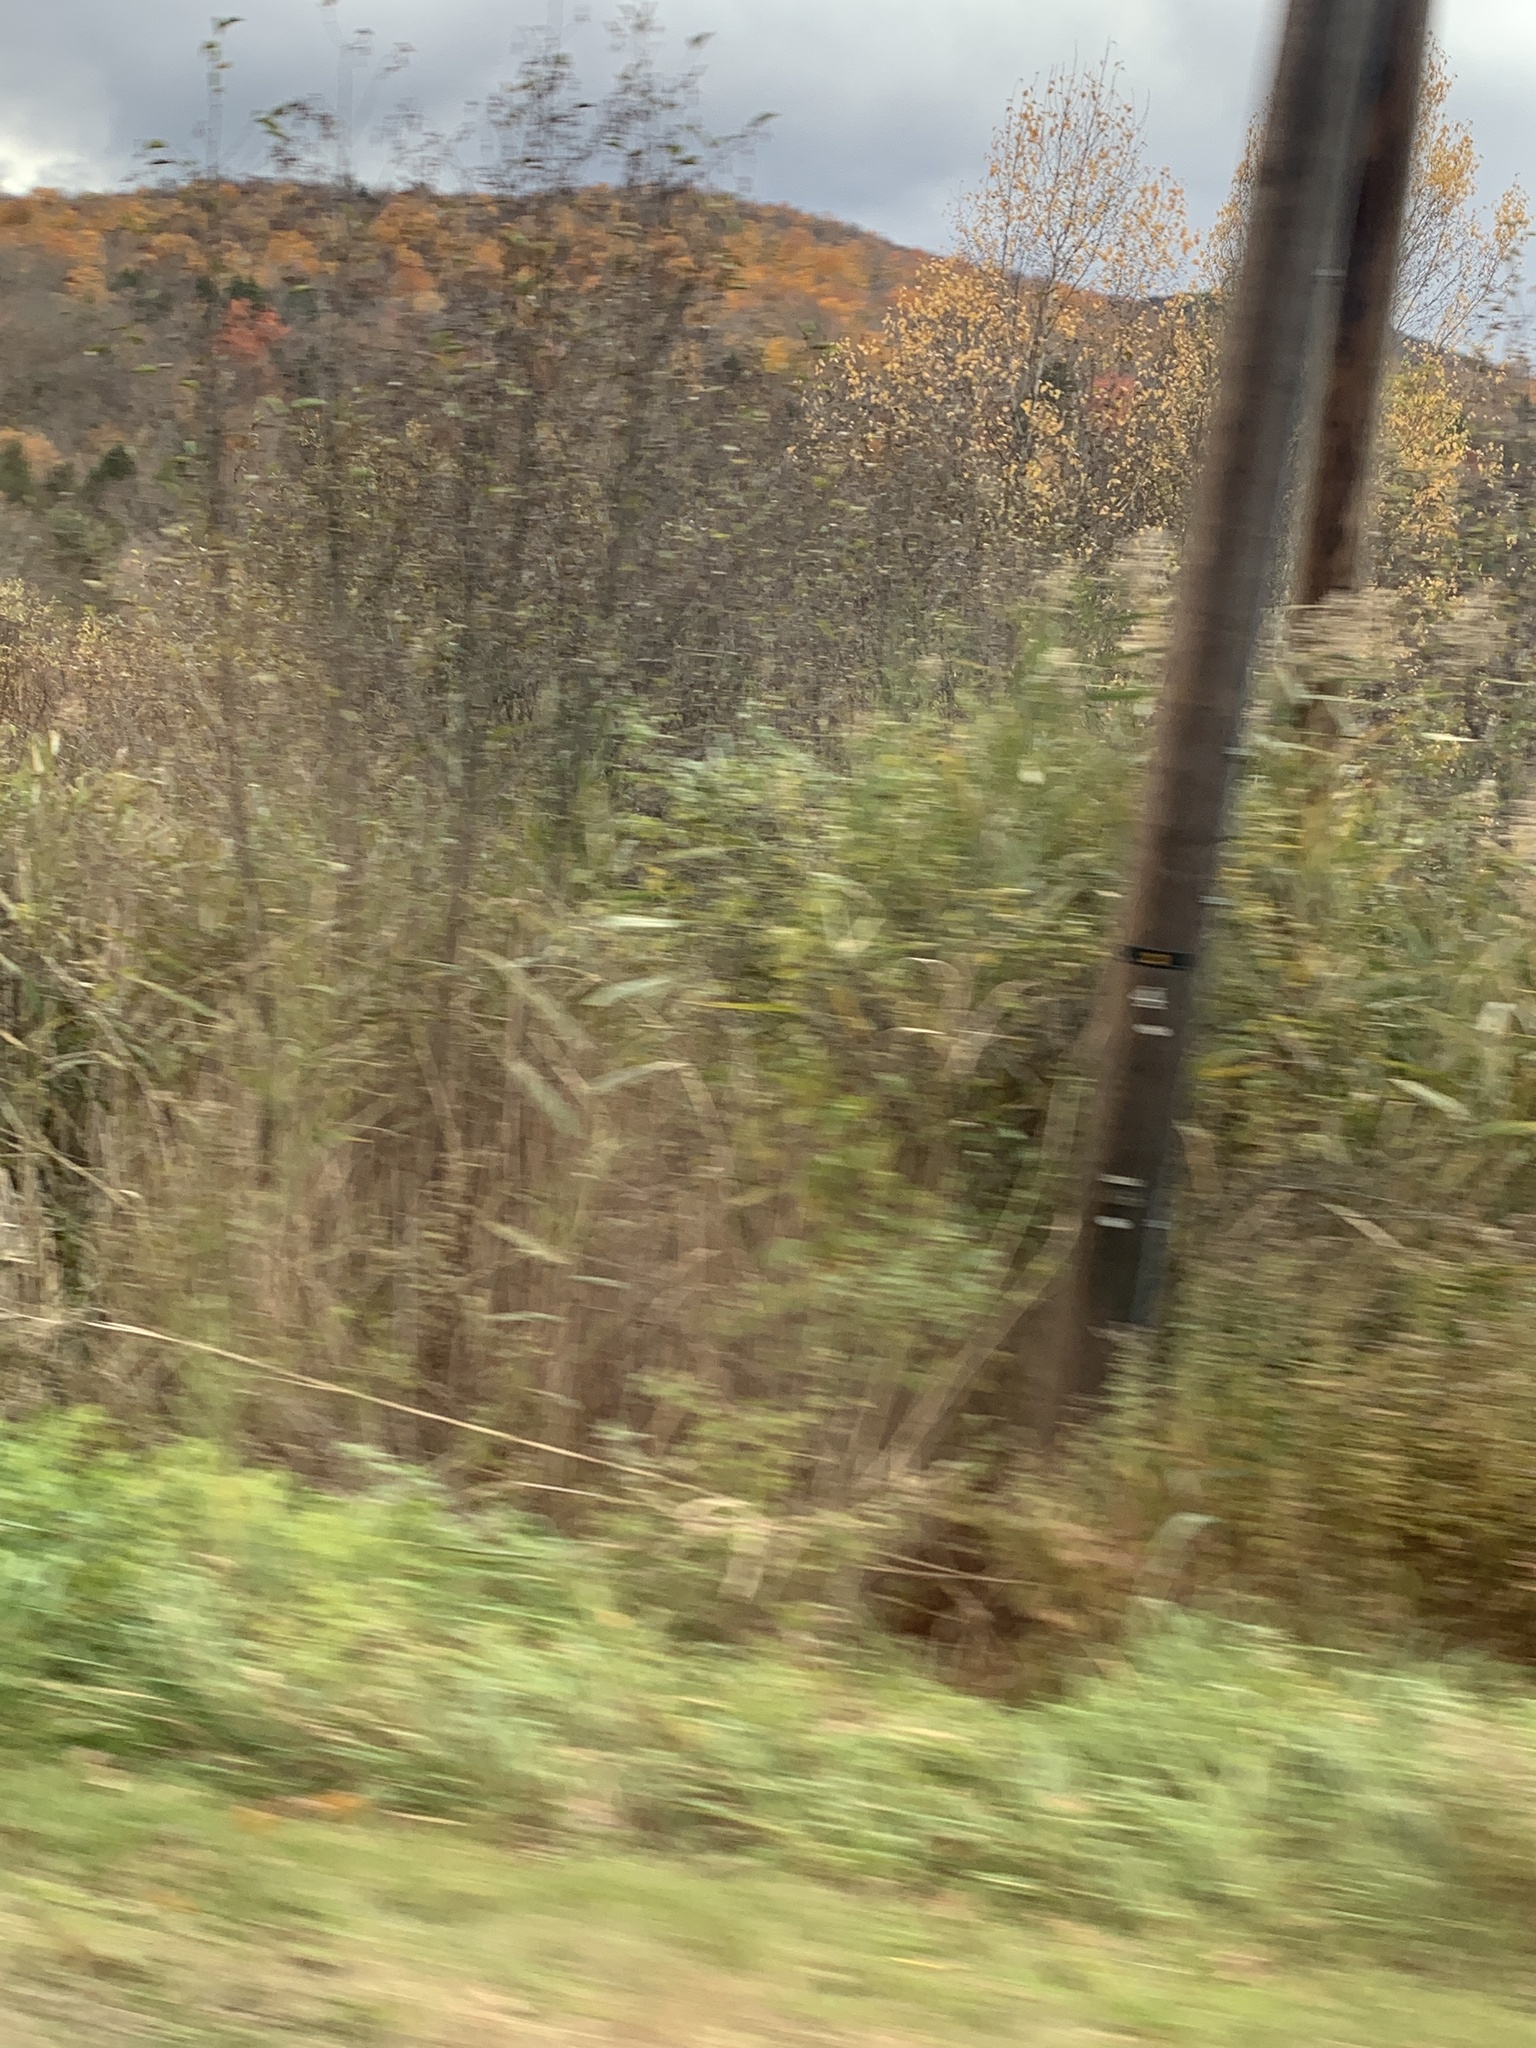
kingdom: Plantae
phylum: Tracheophyta
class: Liliopsida
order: Poales
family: Poaceae
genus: Phragmites
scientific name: Phragmites australis
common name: Common reed
